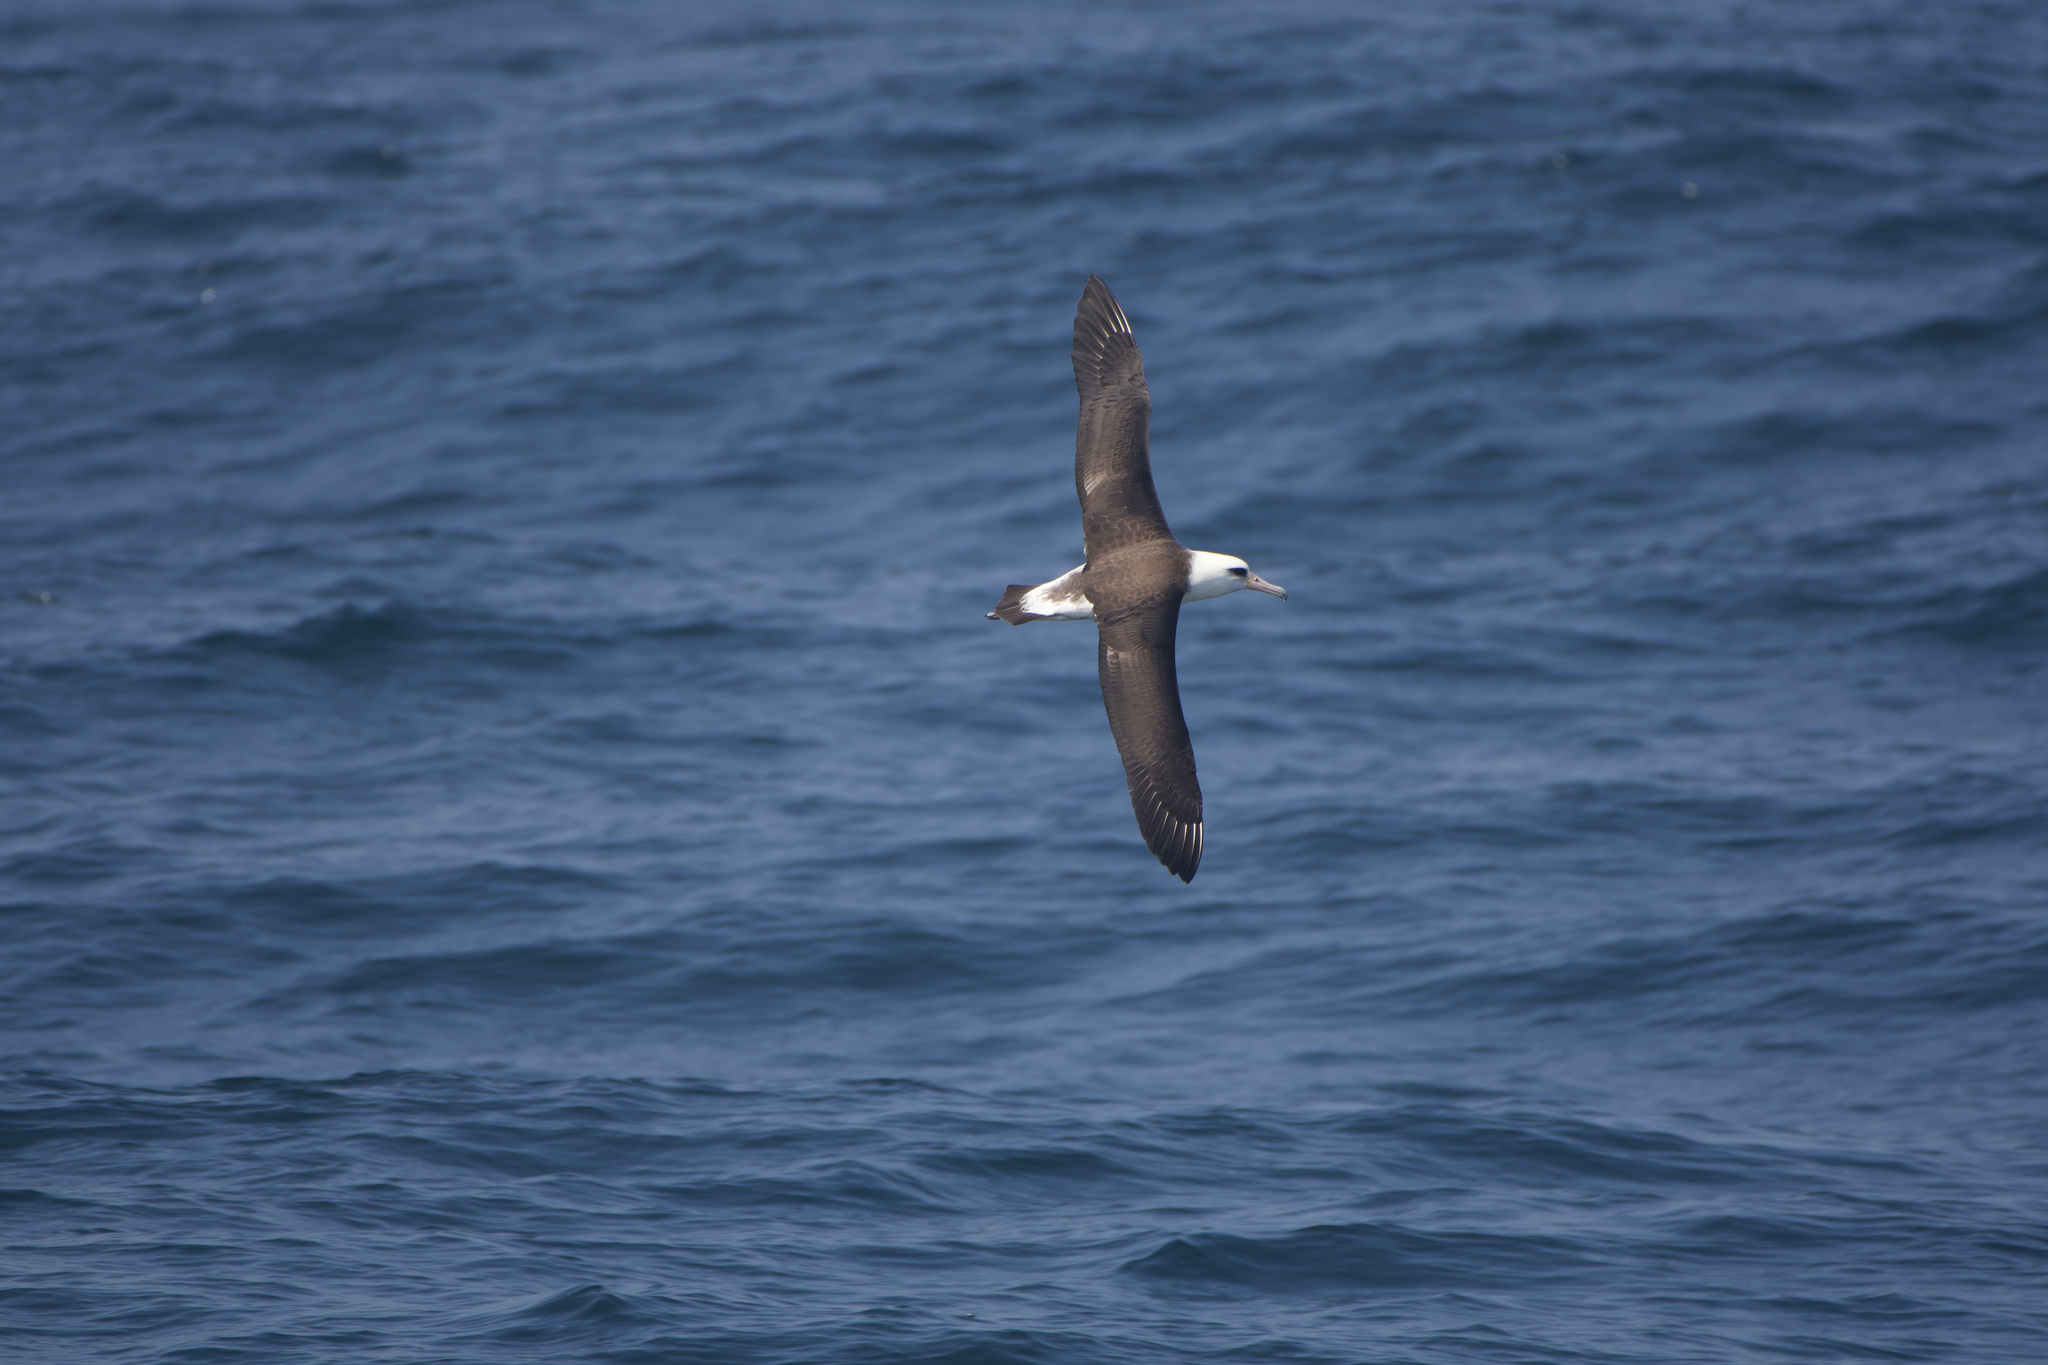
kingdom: Animalia
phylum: Chordata
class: Aves
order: Procellariiformes
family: Diomedeidae
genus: Phoebastria
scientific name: Phoebastria immutabilis
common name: Laysan albatross
